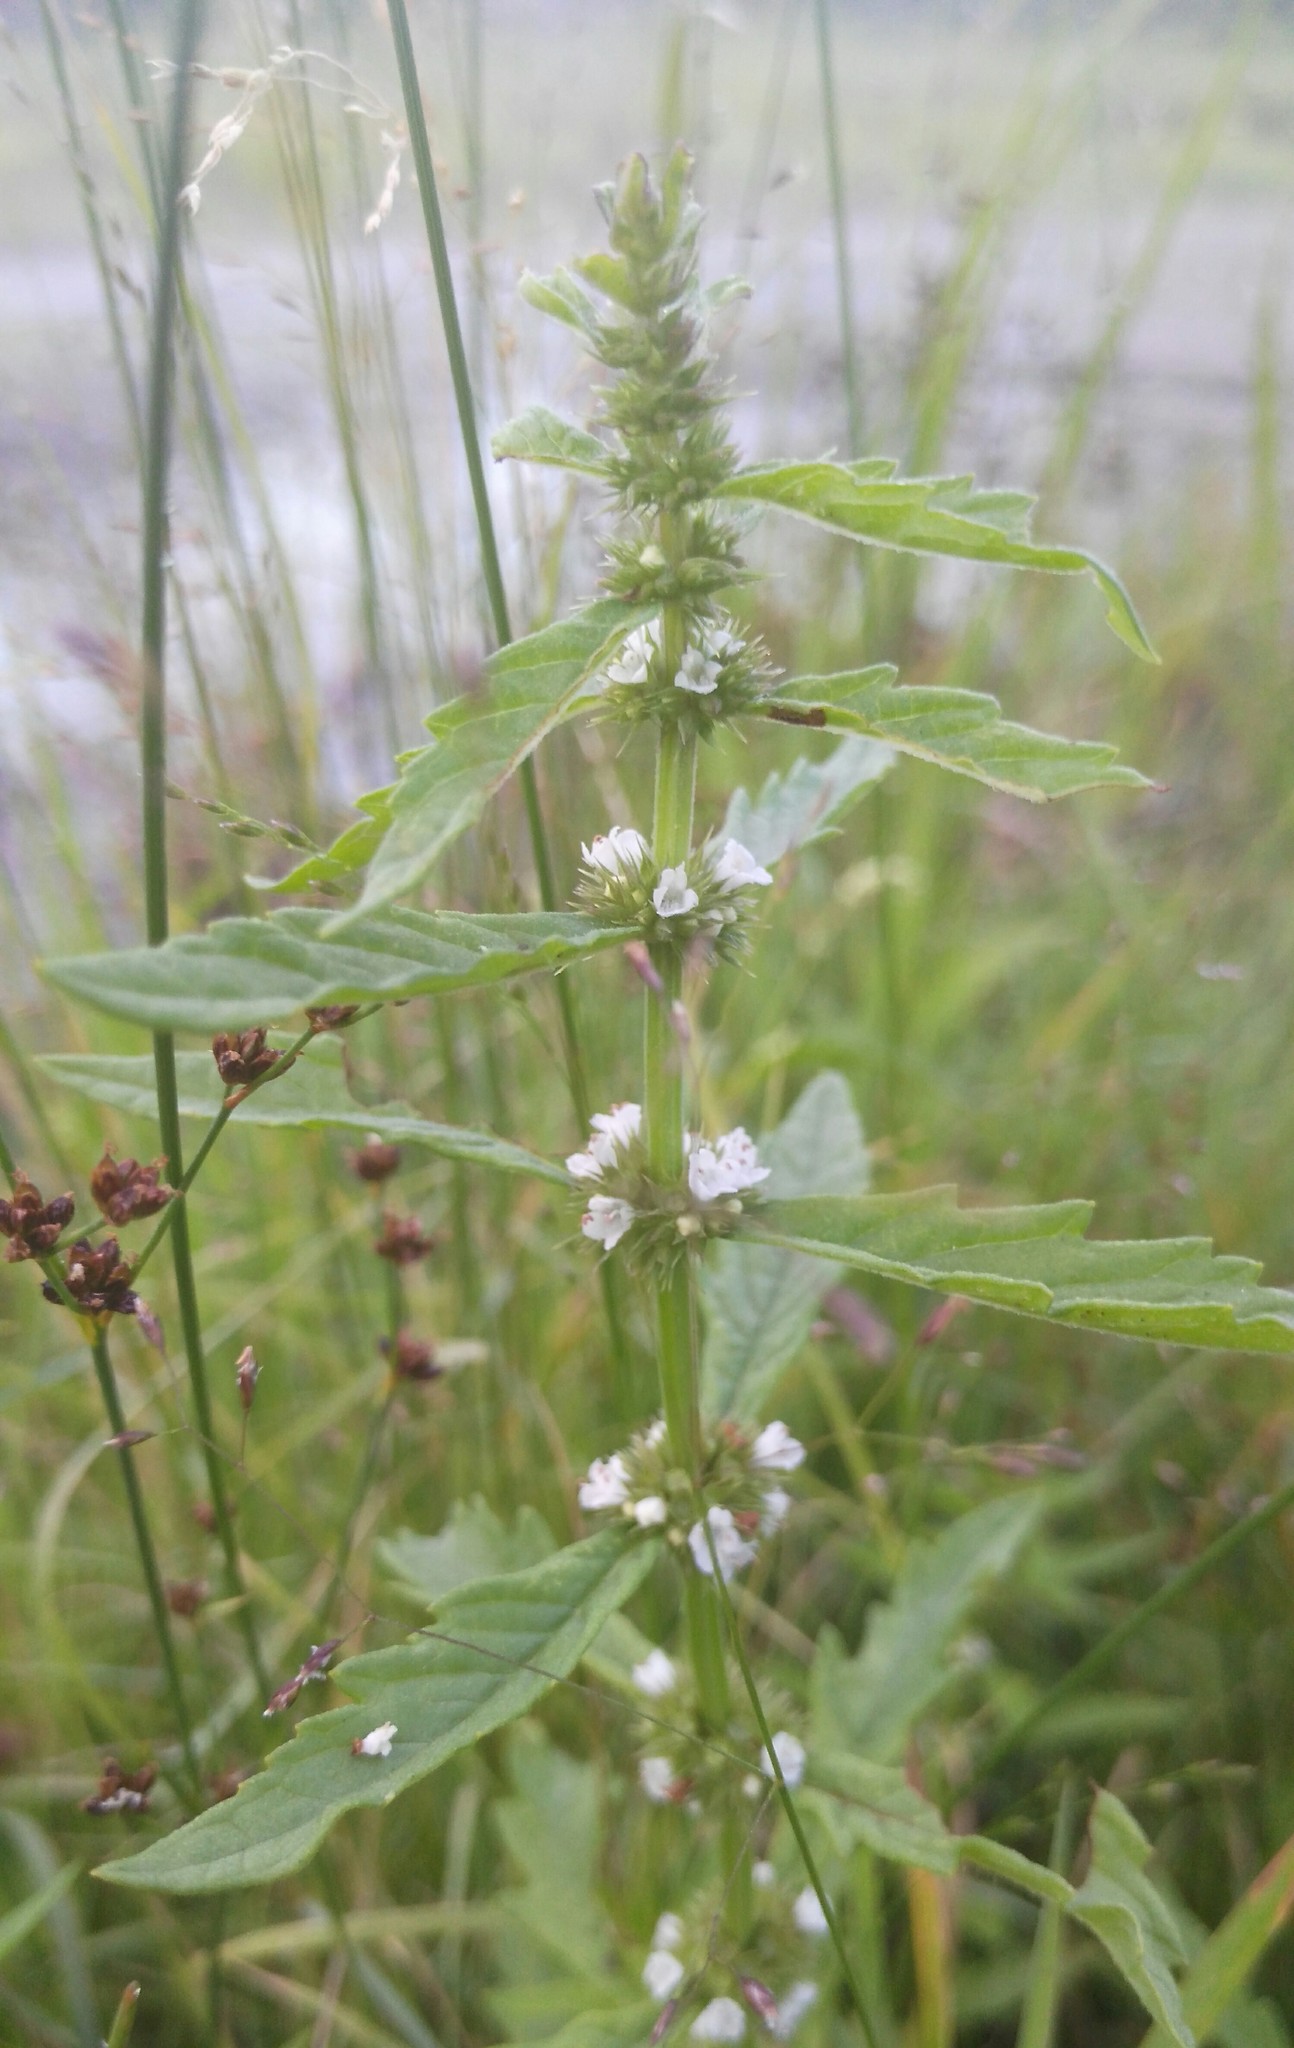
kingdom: Plantae
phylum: Tracheophyta
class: Magnoliopsida
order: Lamiales
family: Lamiaceae
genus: Lycopus
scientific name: Lycopus europaeus
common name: European bugleweed
